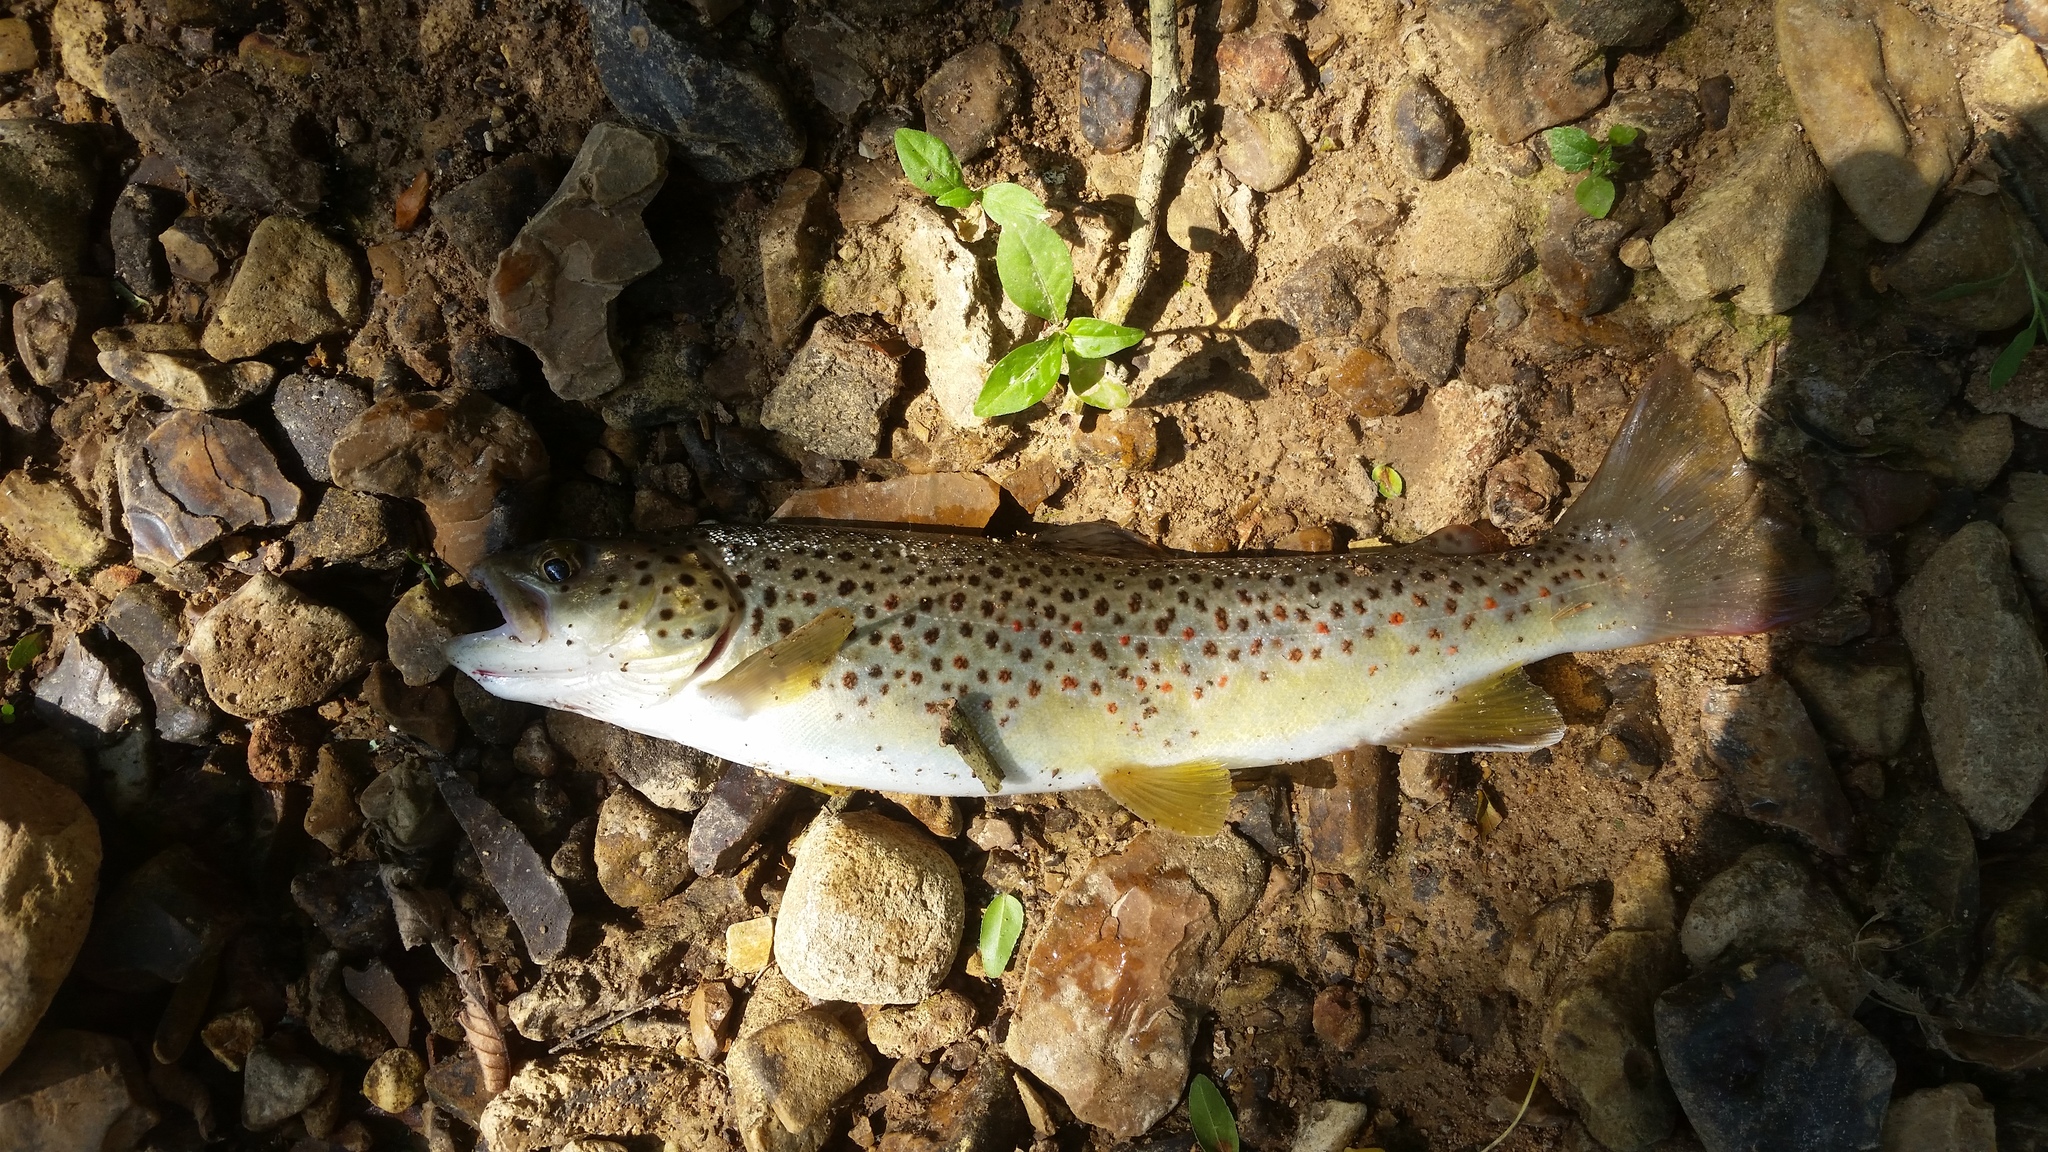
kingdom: Animalia
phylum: Chordata
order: Salmoniformes
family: Salmonidae
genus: Salmo
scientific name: Salmo trutta
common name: Brown trout
